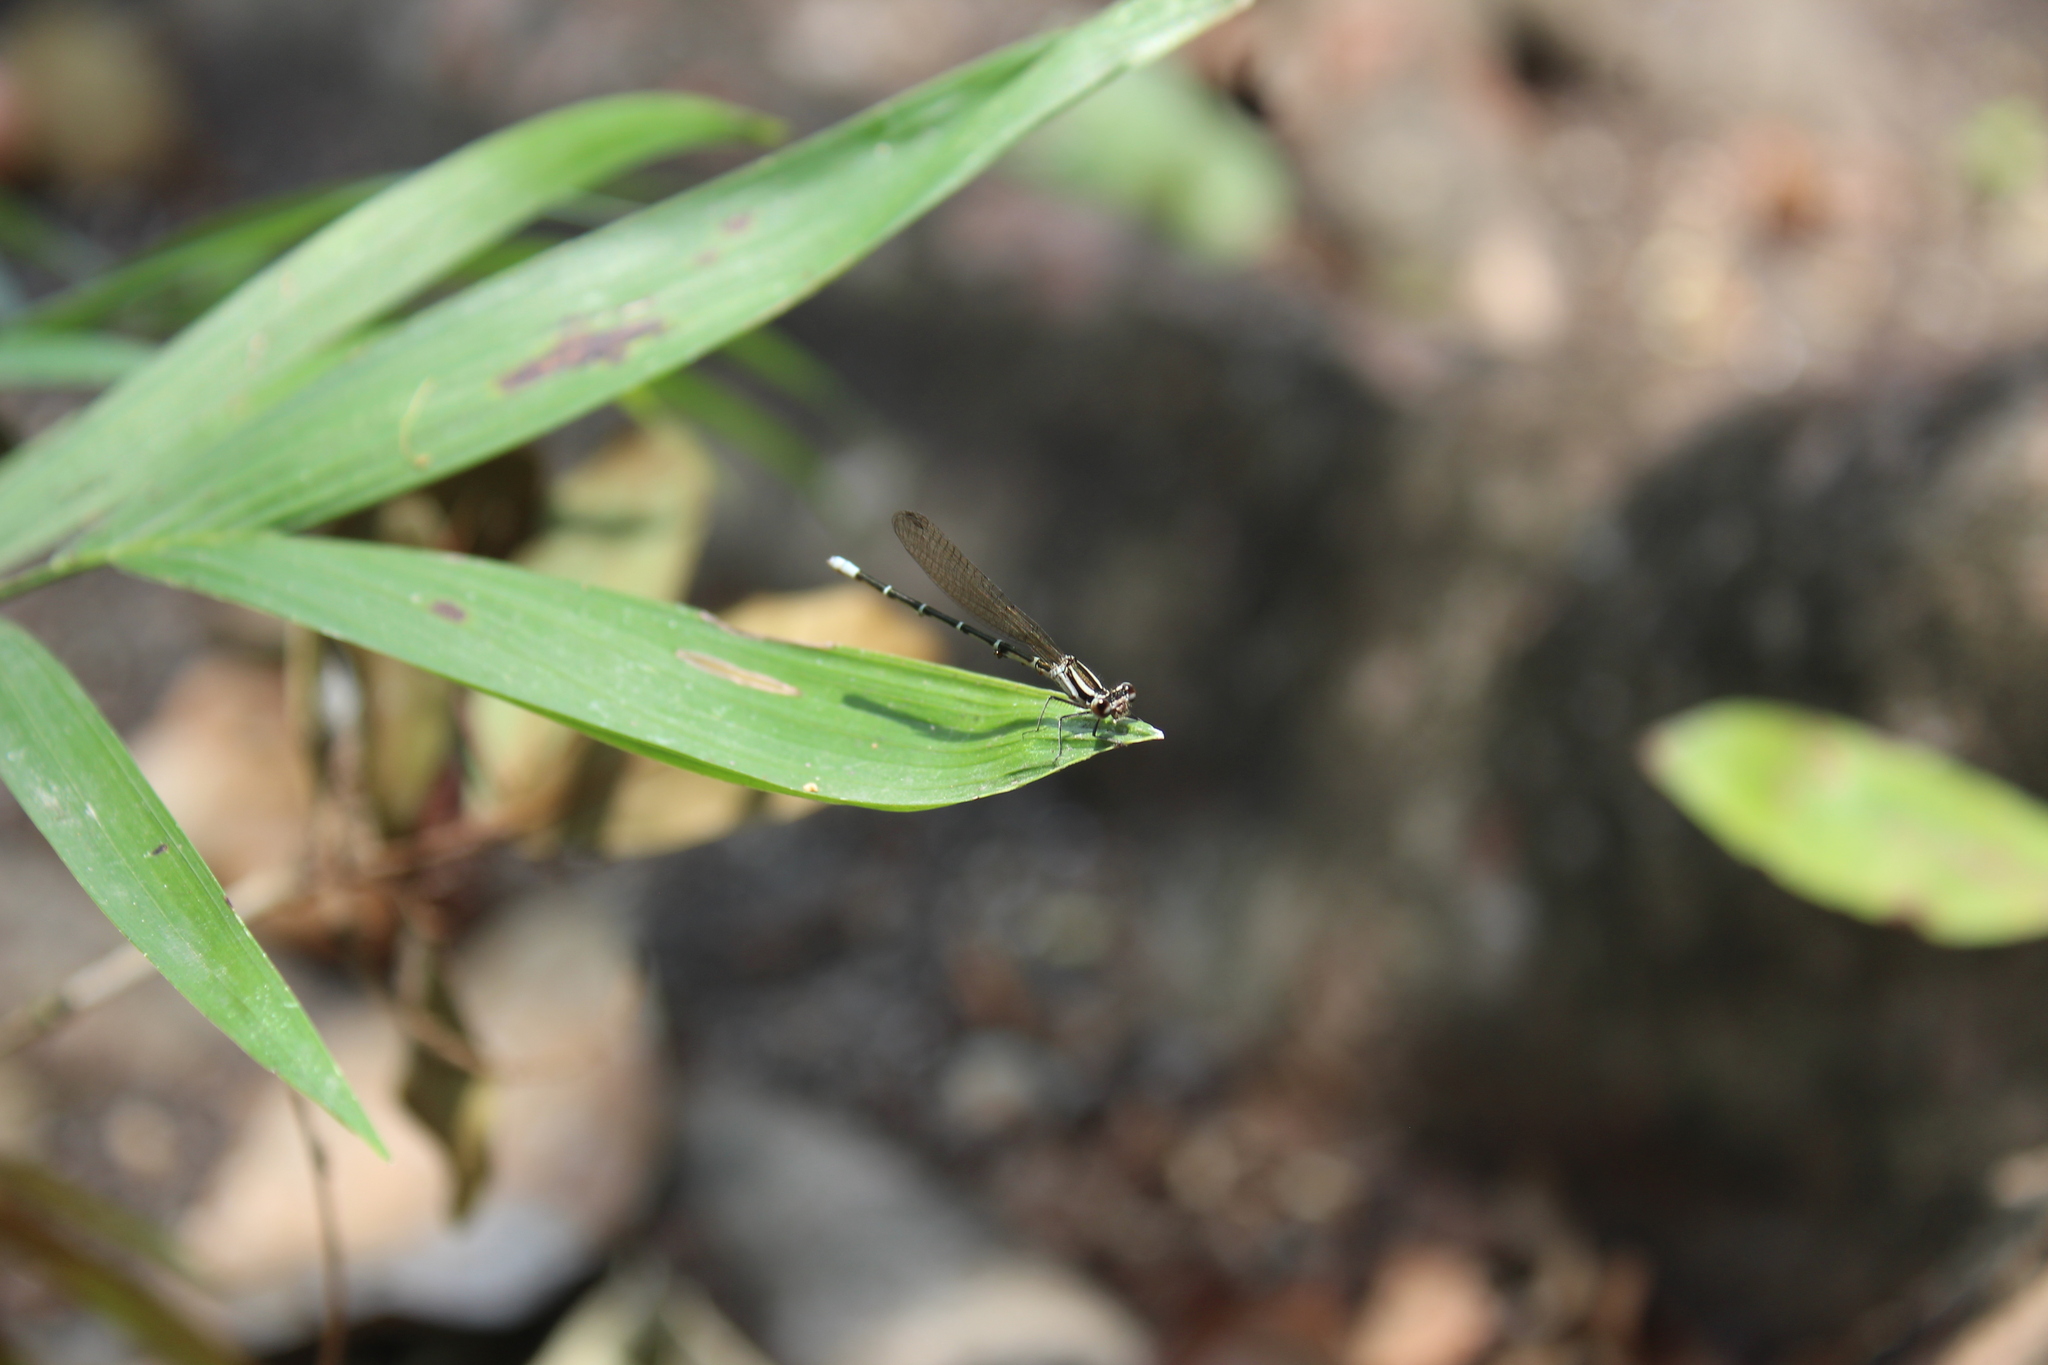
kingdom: Animalia
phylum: Arthropoda
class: Insecta
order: Odonata
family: Coenagrionidae
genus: Argia
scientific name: Argia frequentula
